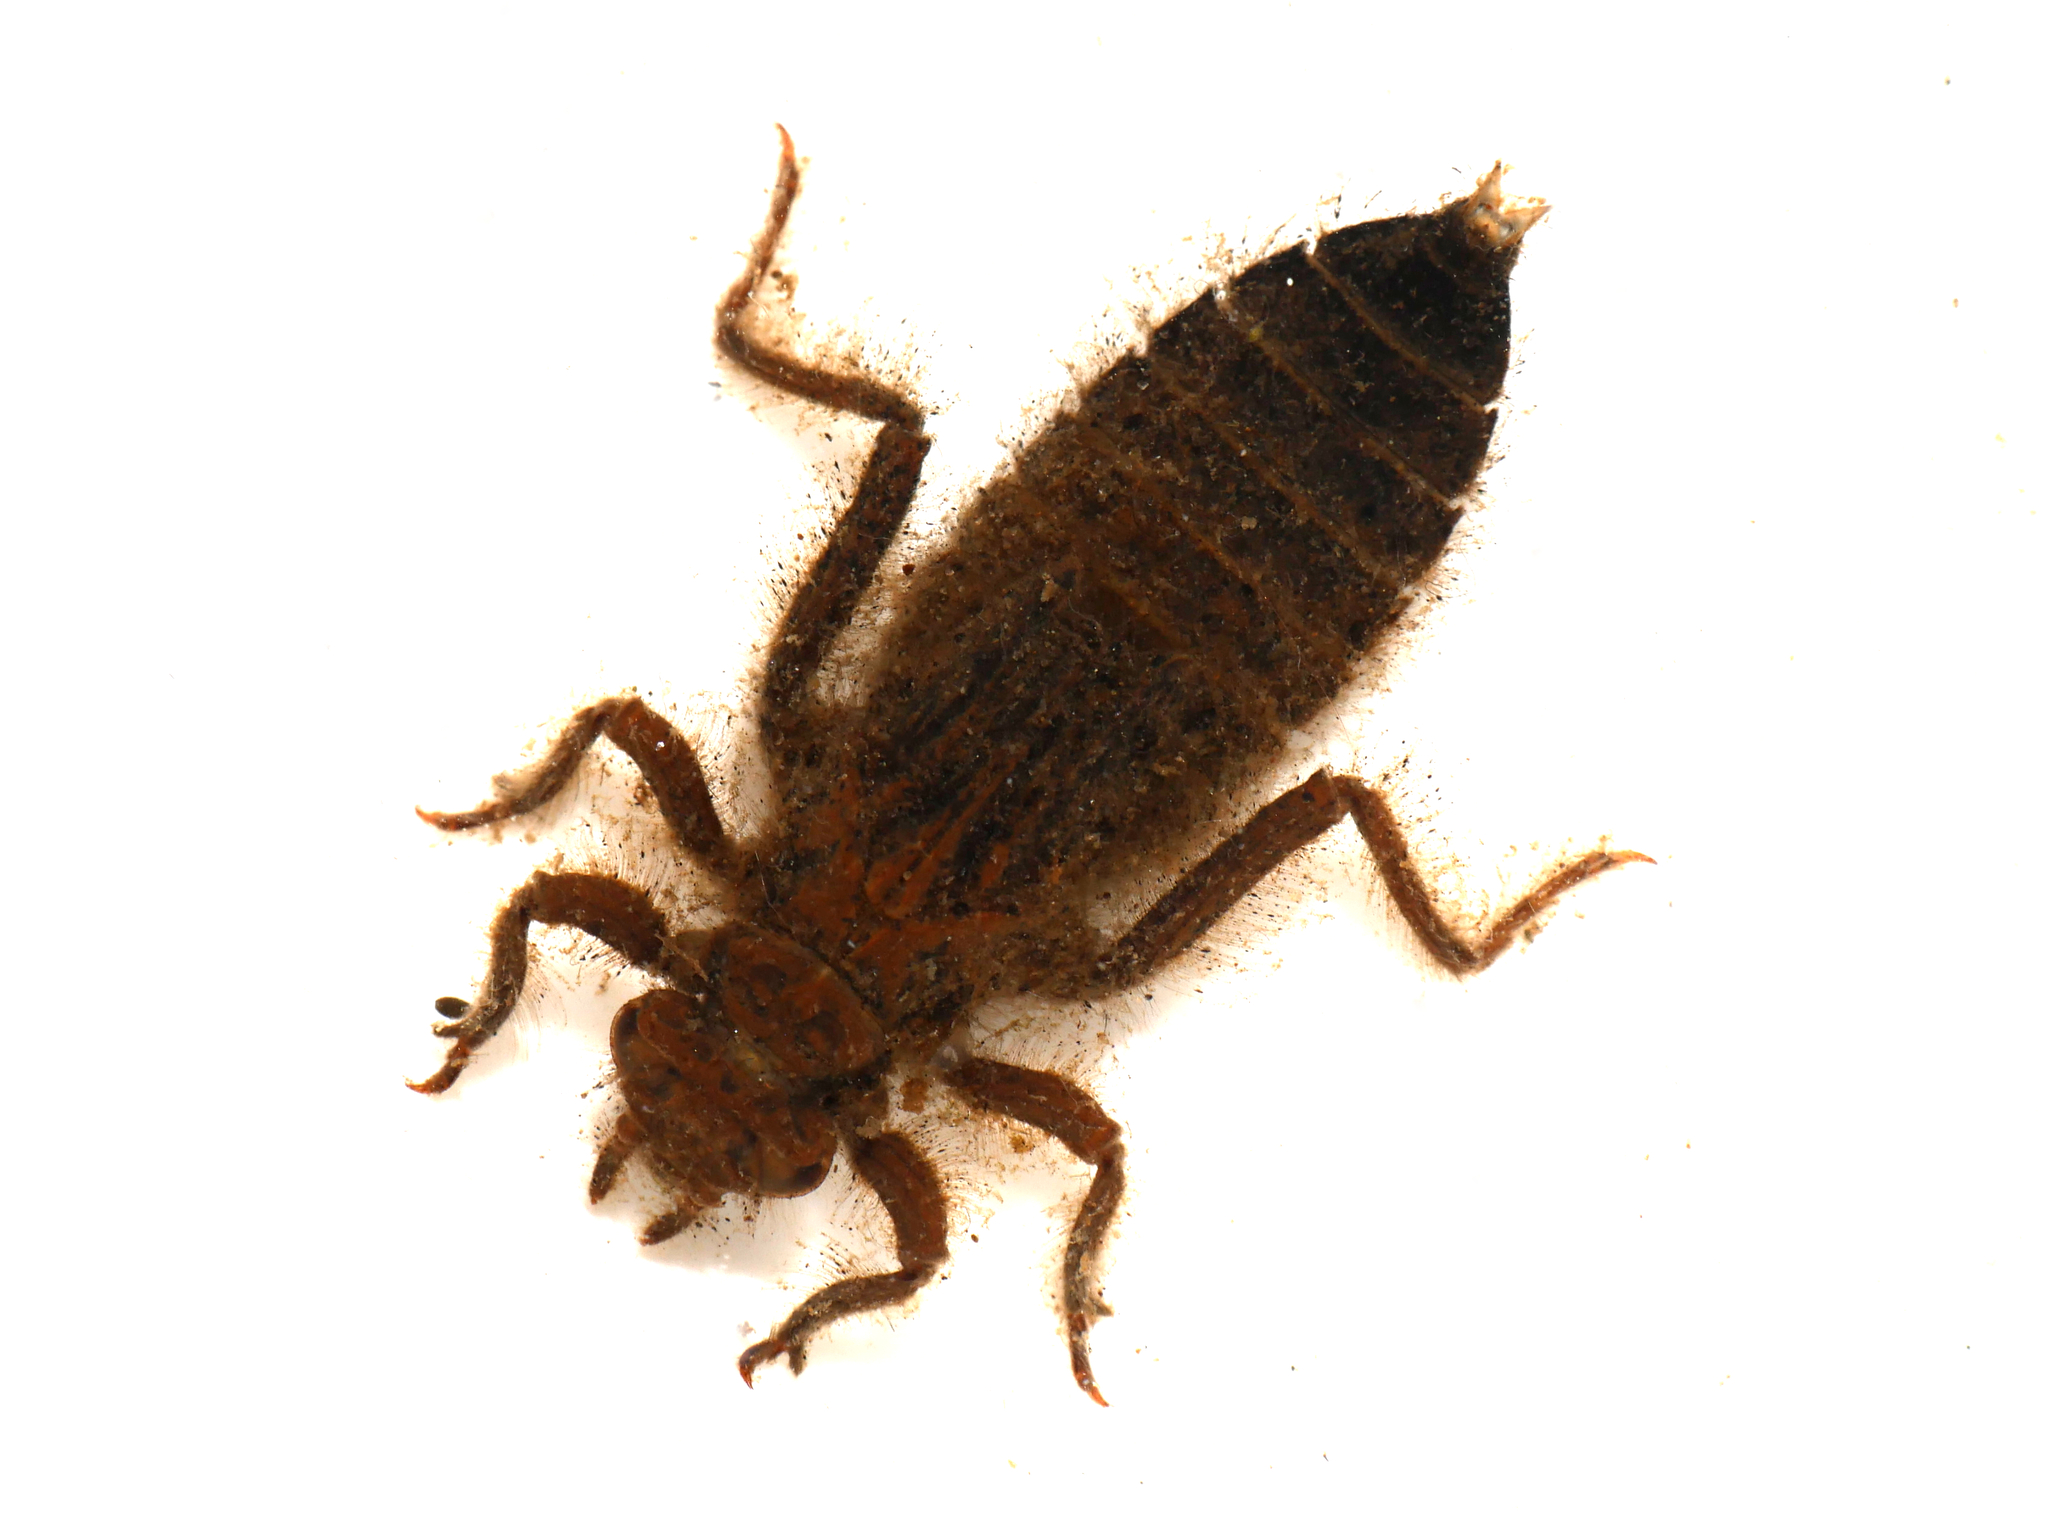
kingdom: Animalia
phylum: Arthropoda
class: Insecta
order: Odonata
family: Gomphidae
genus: Gomphus
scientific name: Gomphus vulgatissimus
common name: Club-tailed dragonfly
